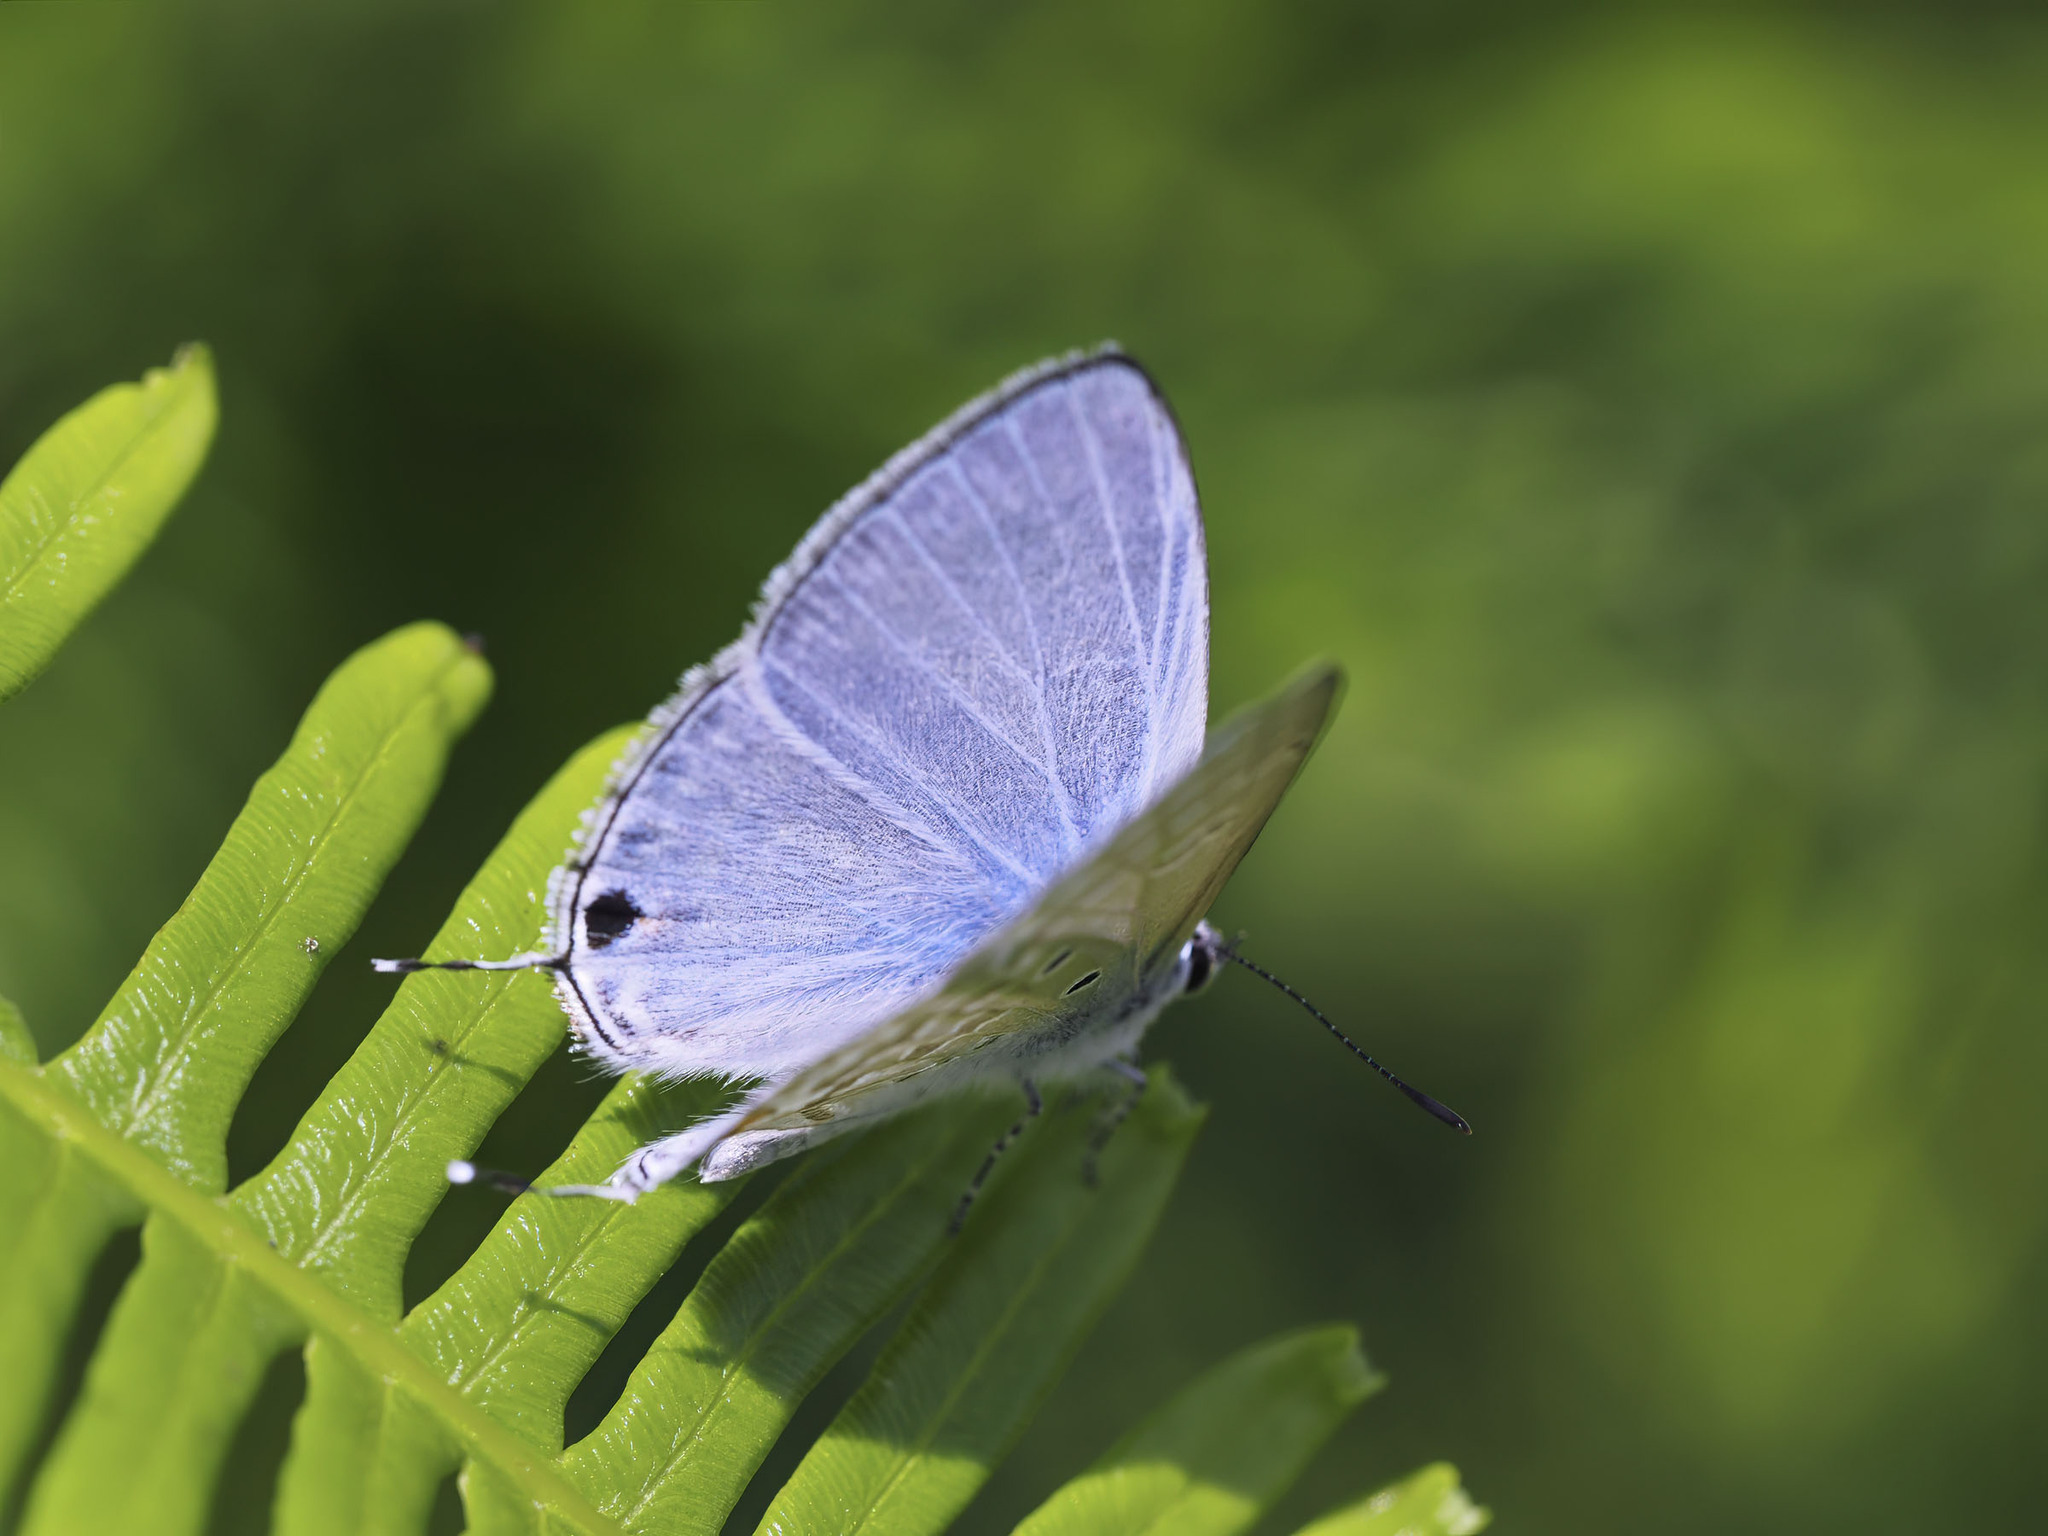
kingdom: Animalia
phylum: Arthropoda
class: Insecta
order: Lepidoptera
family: Lycaenidae
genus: Catochrysops
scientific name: Catochrysops panormus
